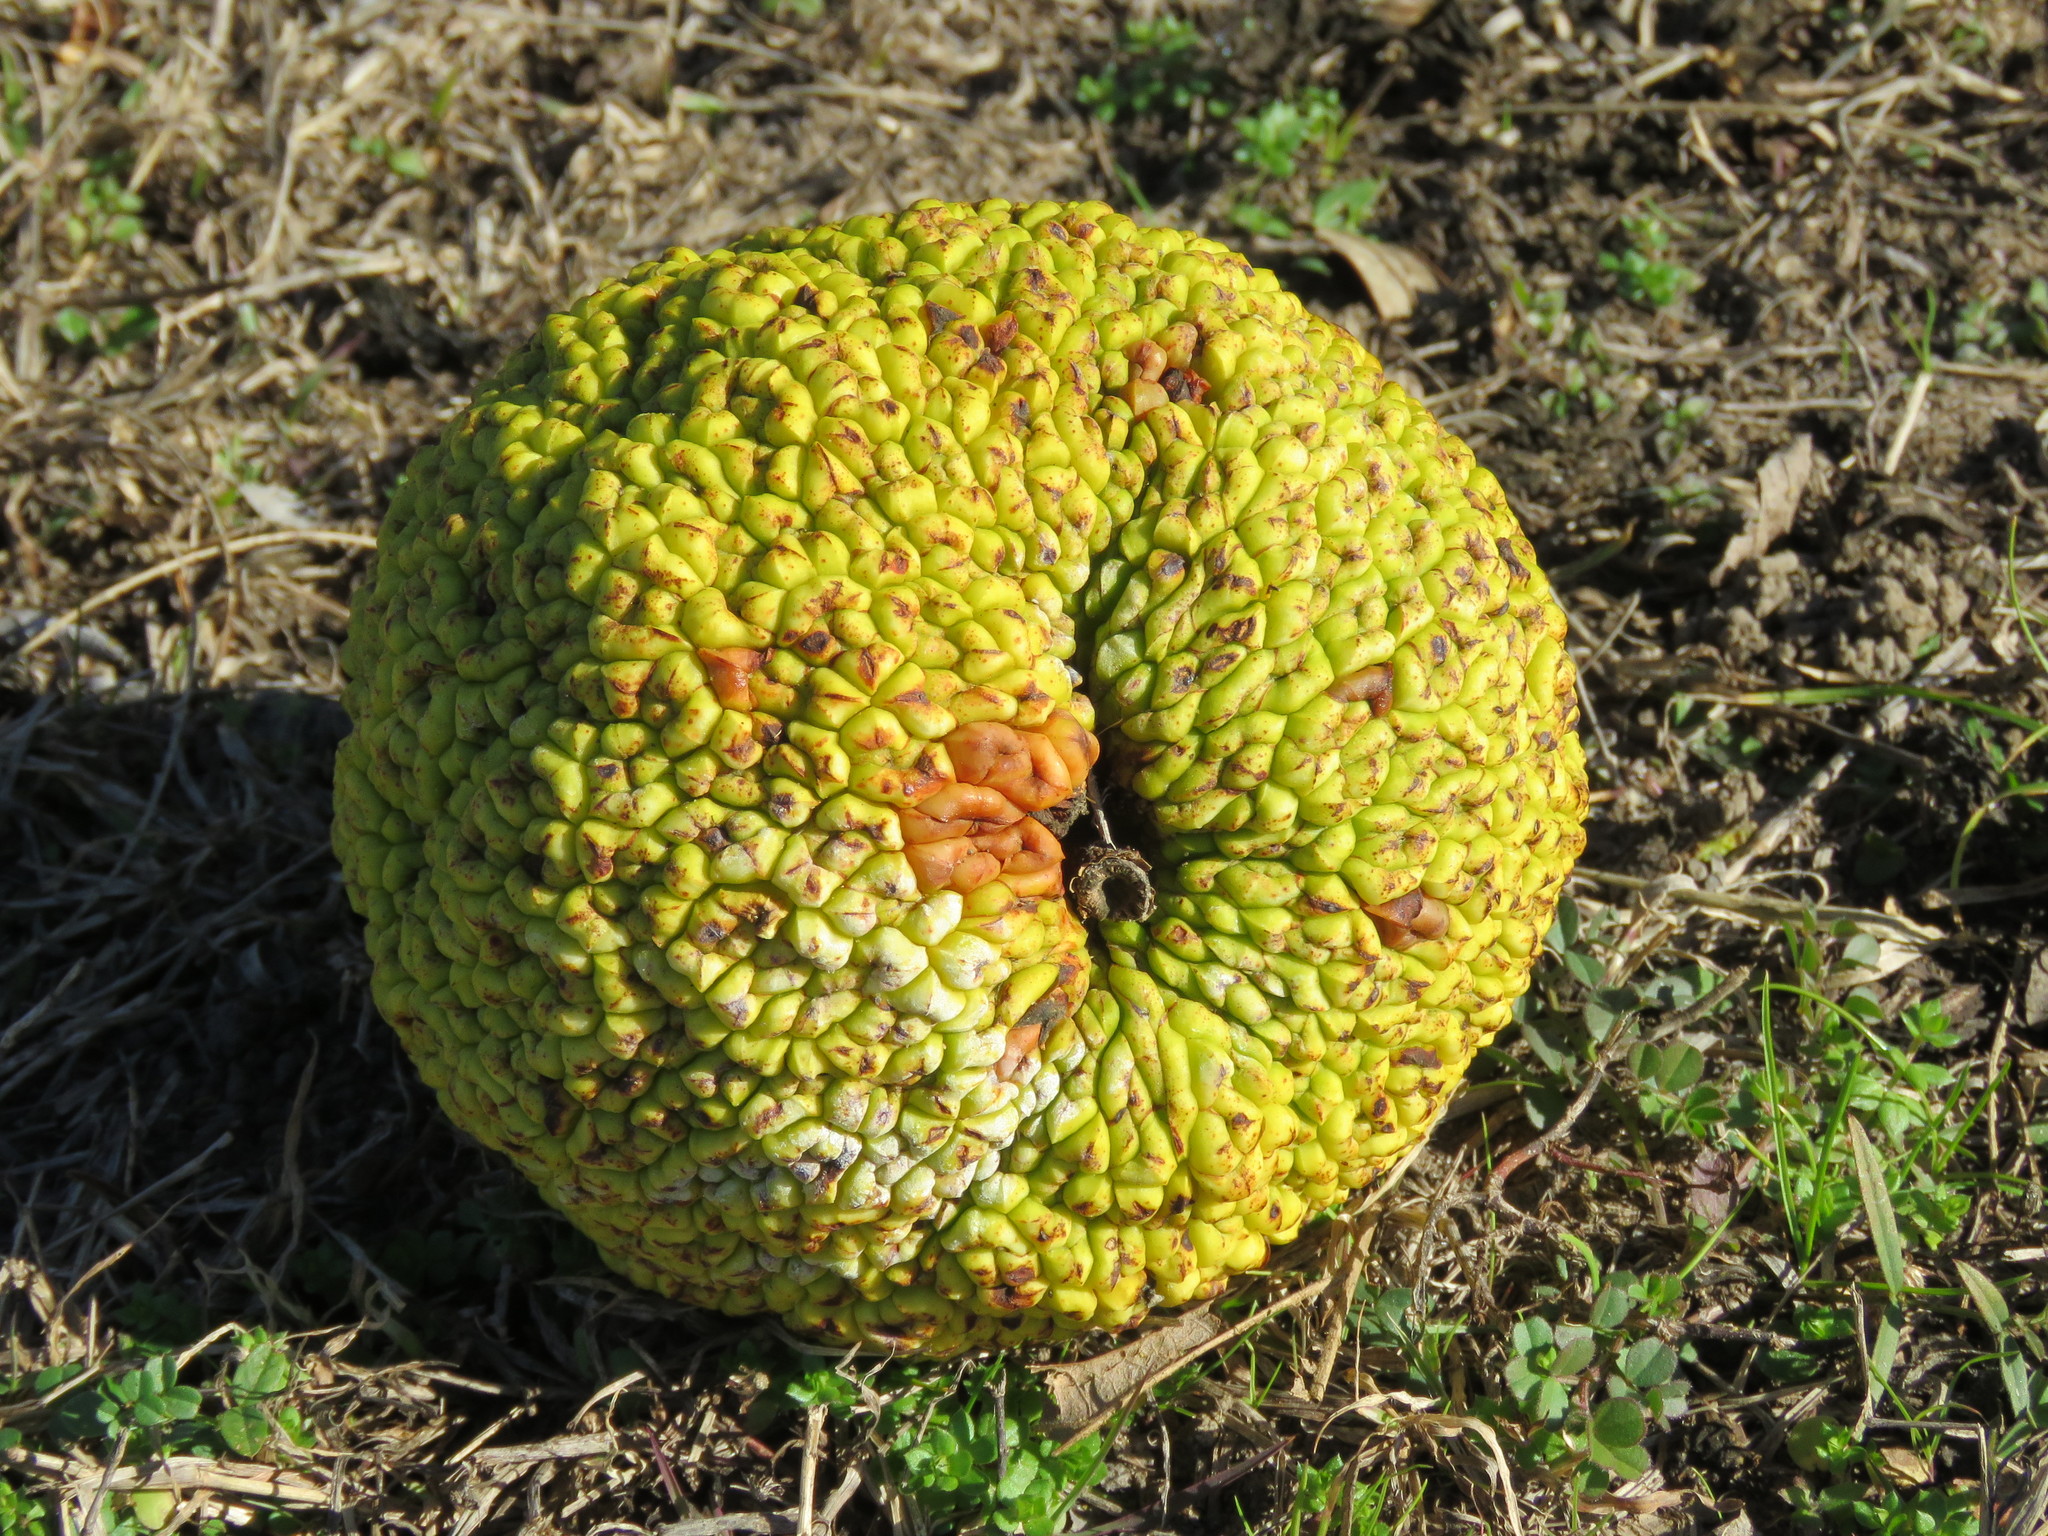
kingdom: Plantae
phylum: Tracheophyta
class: Magnoliopsida
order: Rosales
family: Moraceae
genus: Maclura
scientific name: Maclura pomifera
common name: Osage-orange
